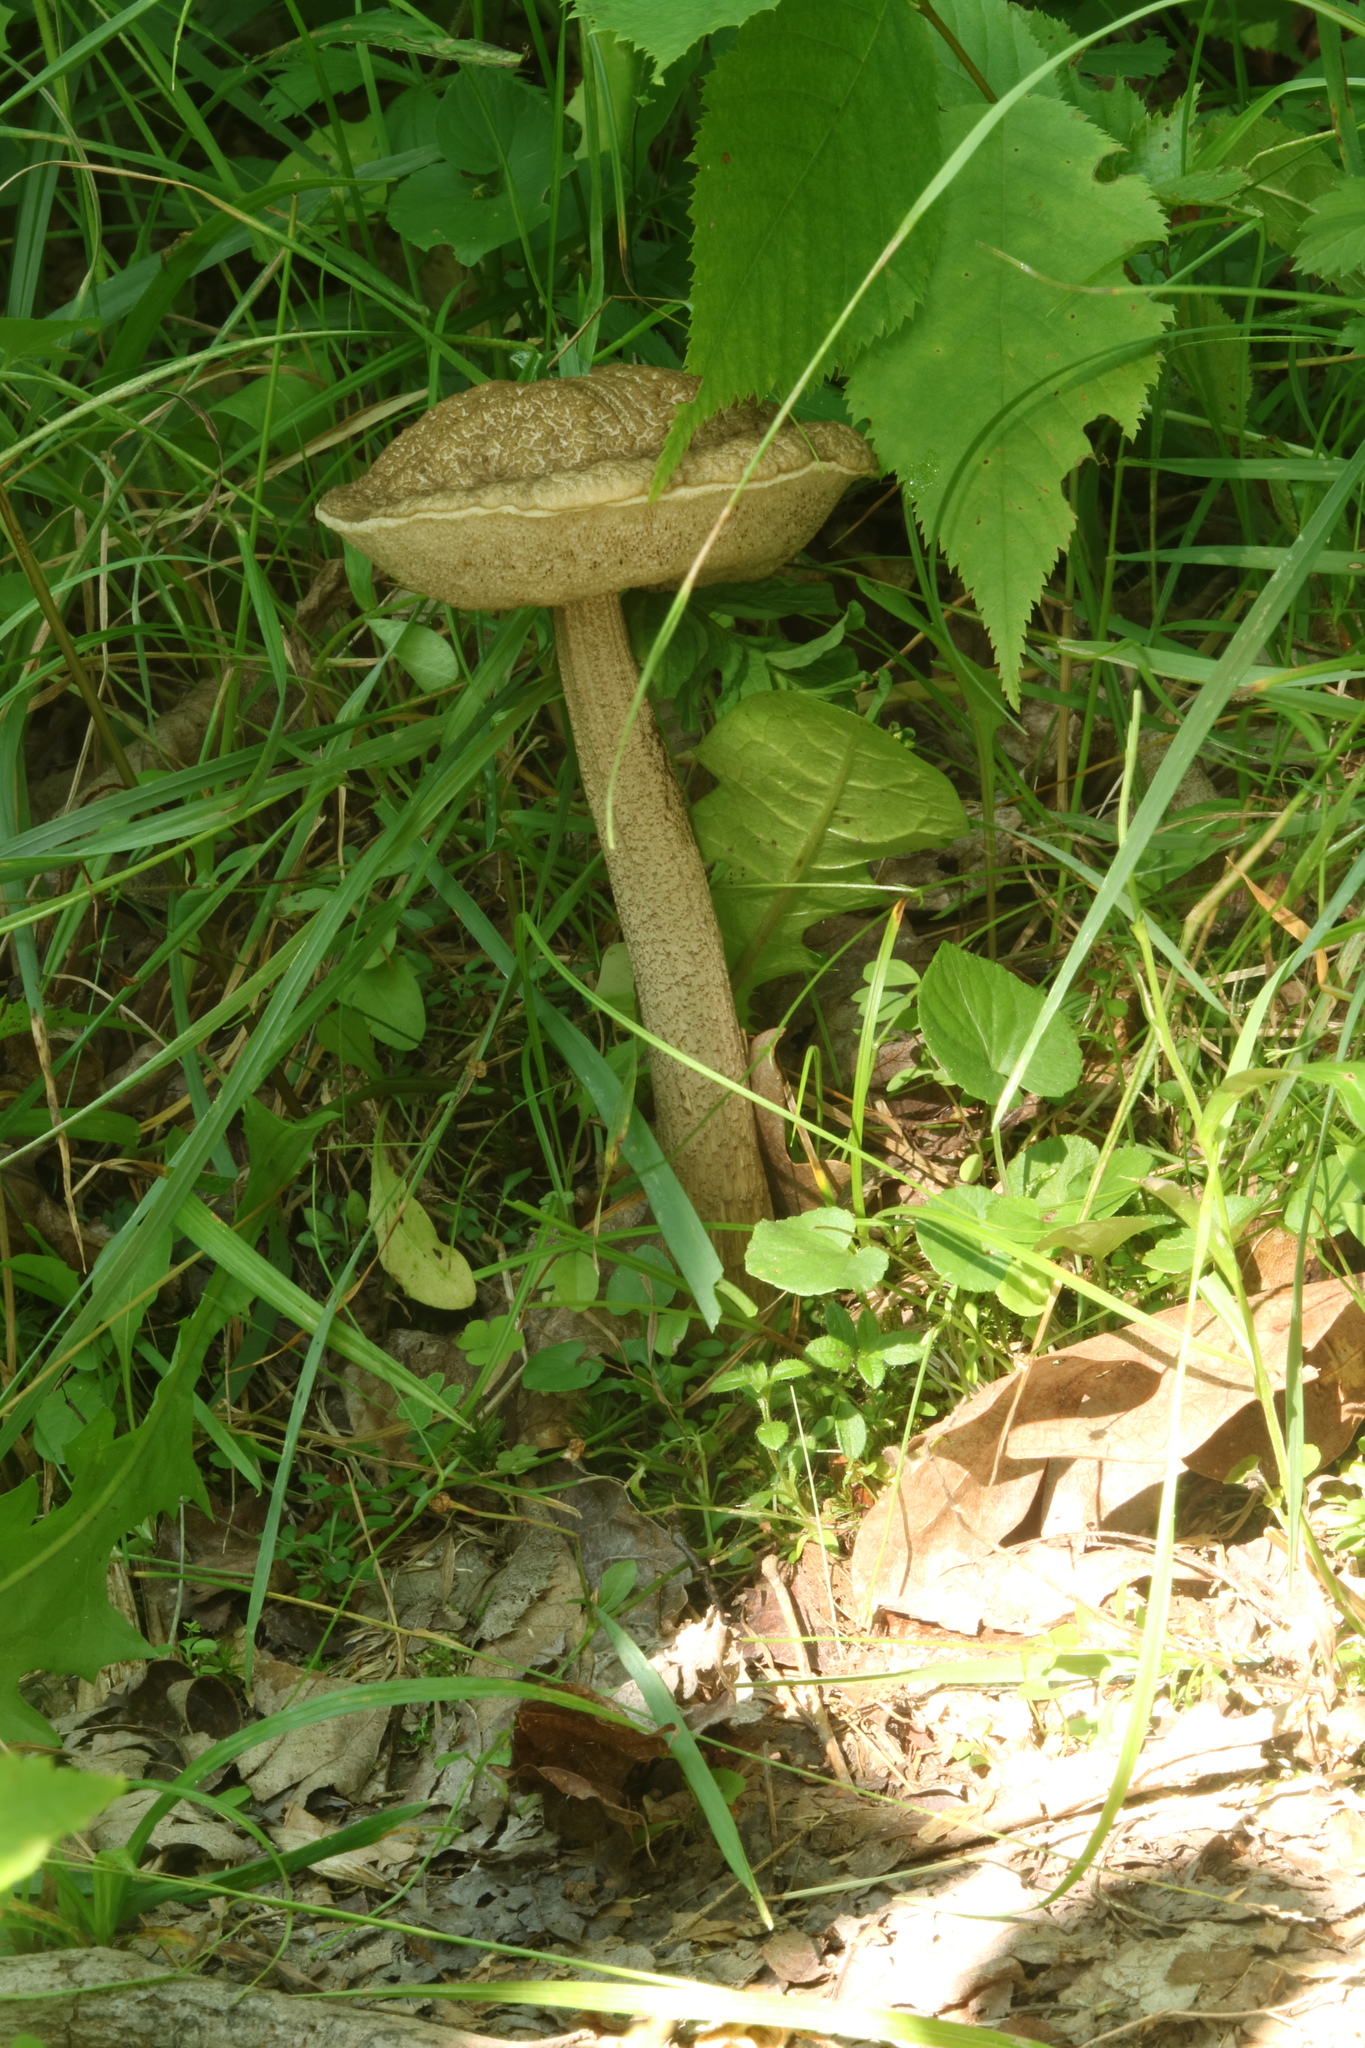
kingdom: Fungi
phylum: Basidiomycota
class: Agaricomycetes
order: Boletales
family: Boletaceae
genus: Leccinellum
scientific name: Leccinellum griseum
